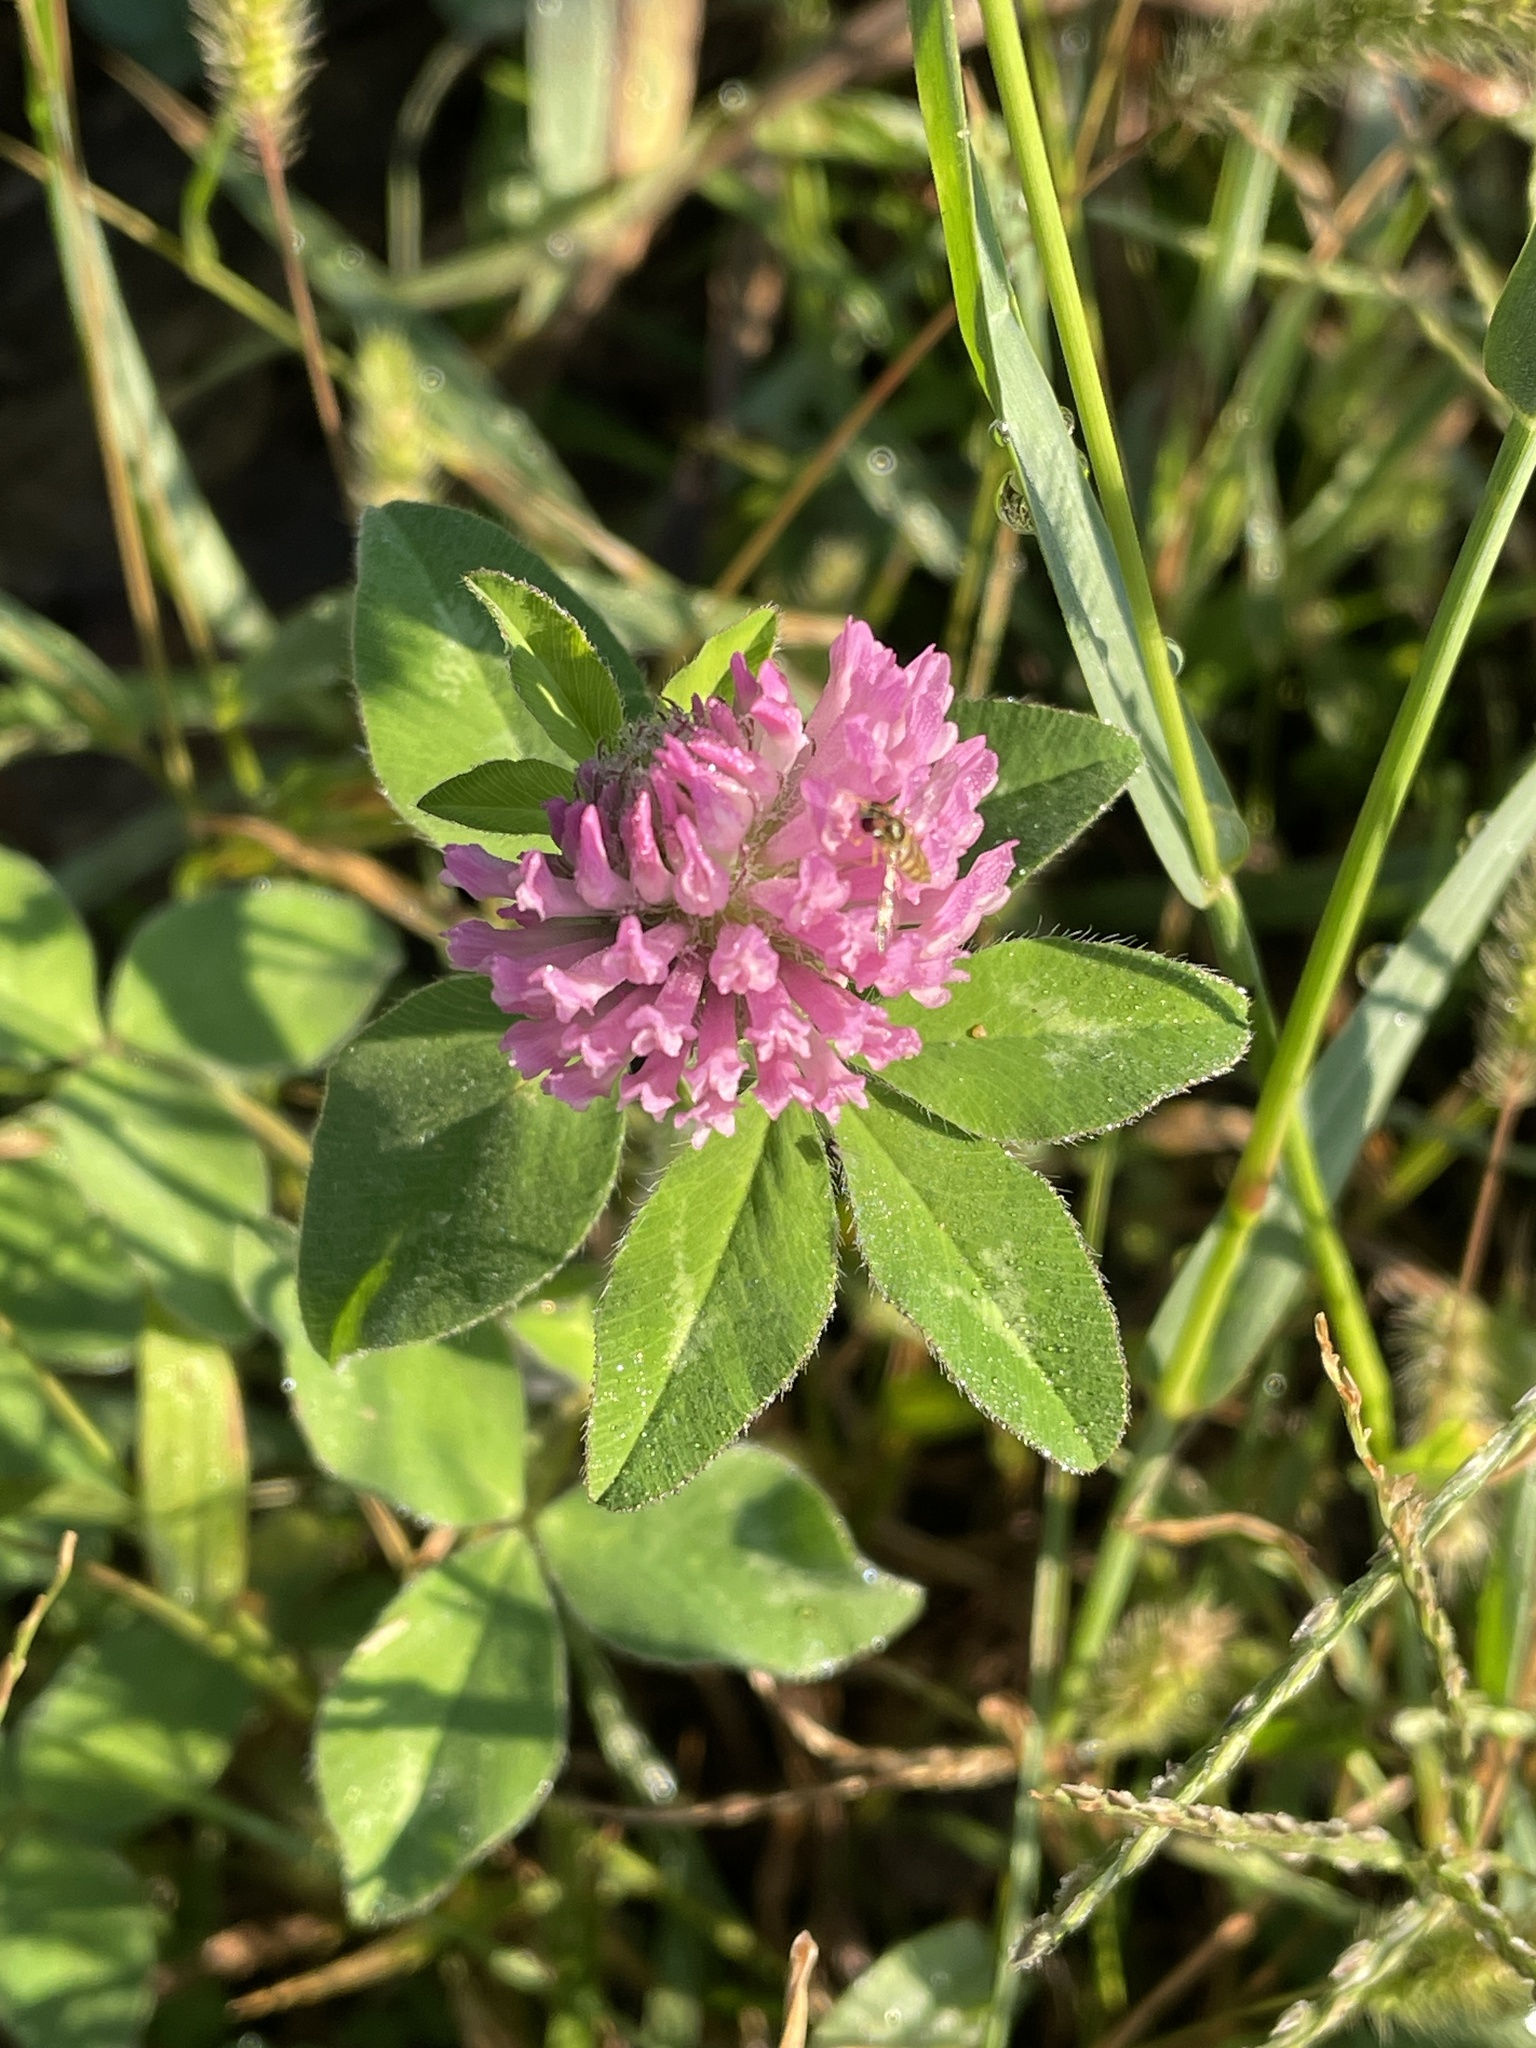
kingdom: Plantae
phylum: Tracheophyta
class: Magnoliopsida
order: Fabales
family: Fabaceae
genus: Trifolium
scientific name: Trifolium pratense
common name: Red clover
